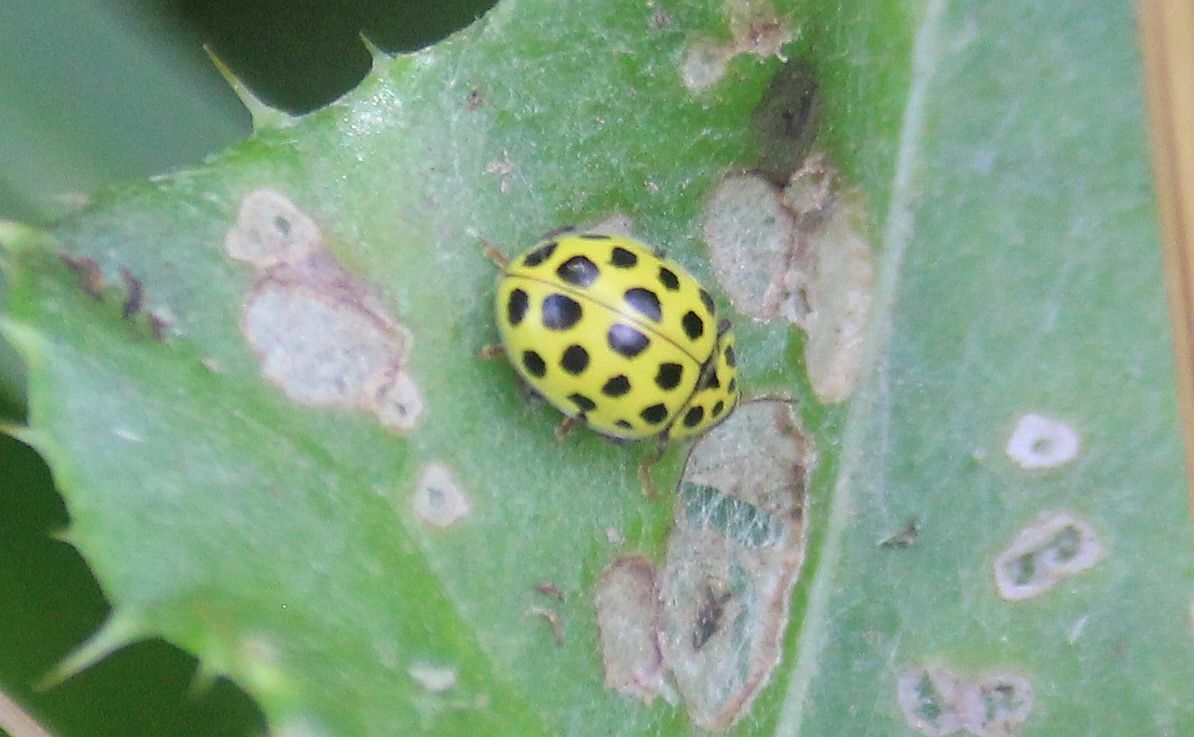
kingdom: Animalia
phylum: Arthropoda
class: Insecta
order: Coleoptera
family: Coccinellidae
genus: Psyllobora
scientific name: Psyllobora vigintiduopunctata
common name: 22-spot ladybird
